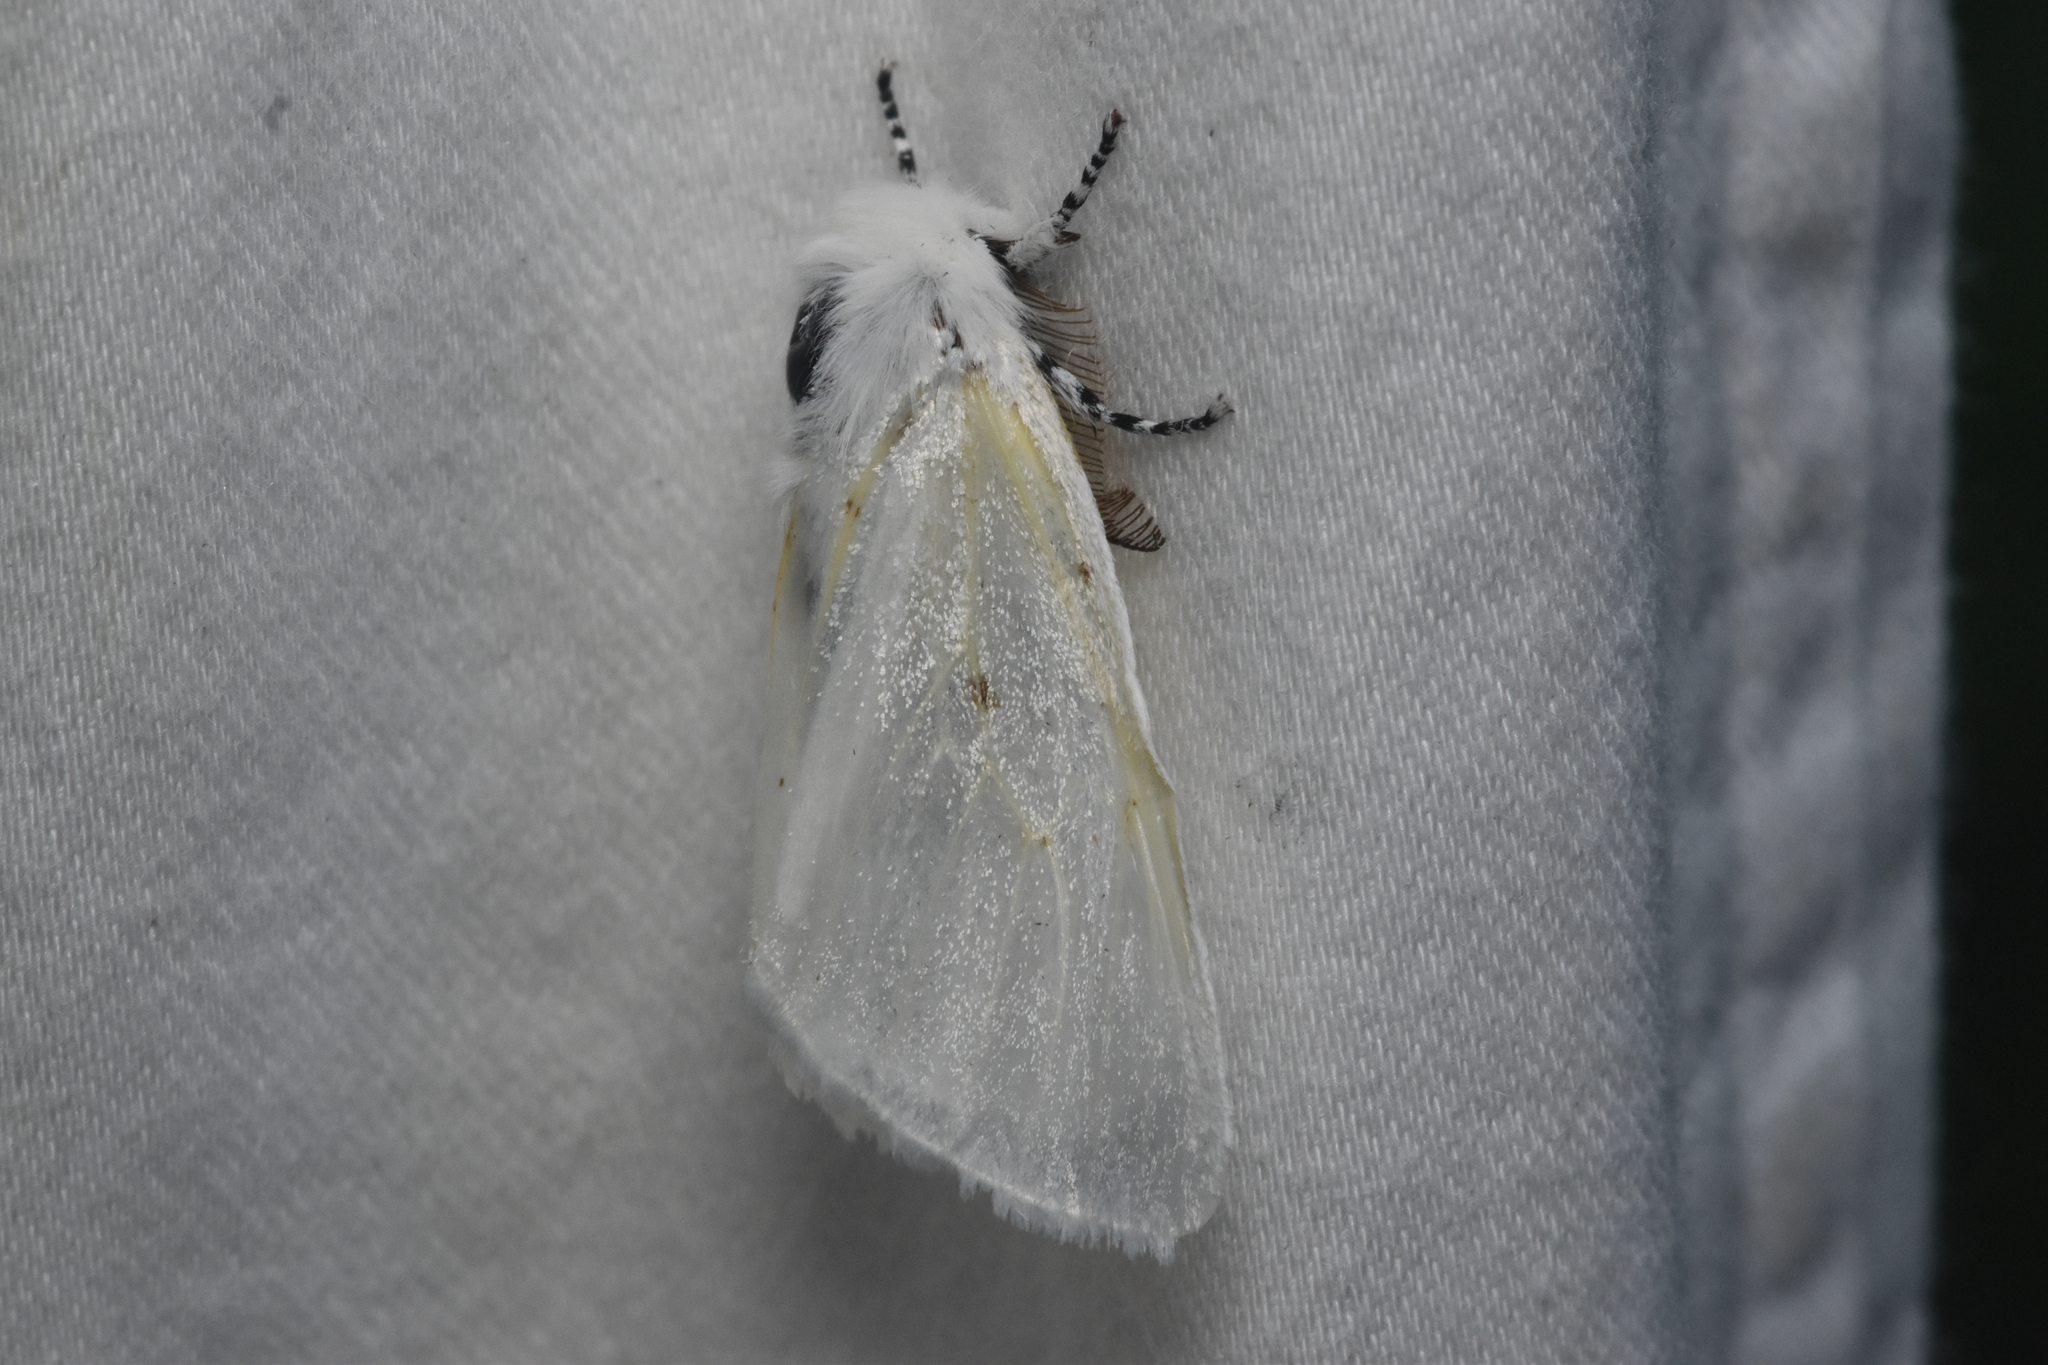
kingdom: Animalia
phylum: Arthropoda
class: Insecta
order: Lepidoptera
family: Erebidae
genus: Leucoma
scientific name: Leucoma salicis
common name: White satin moth
